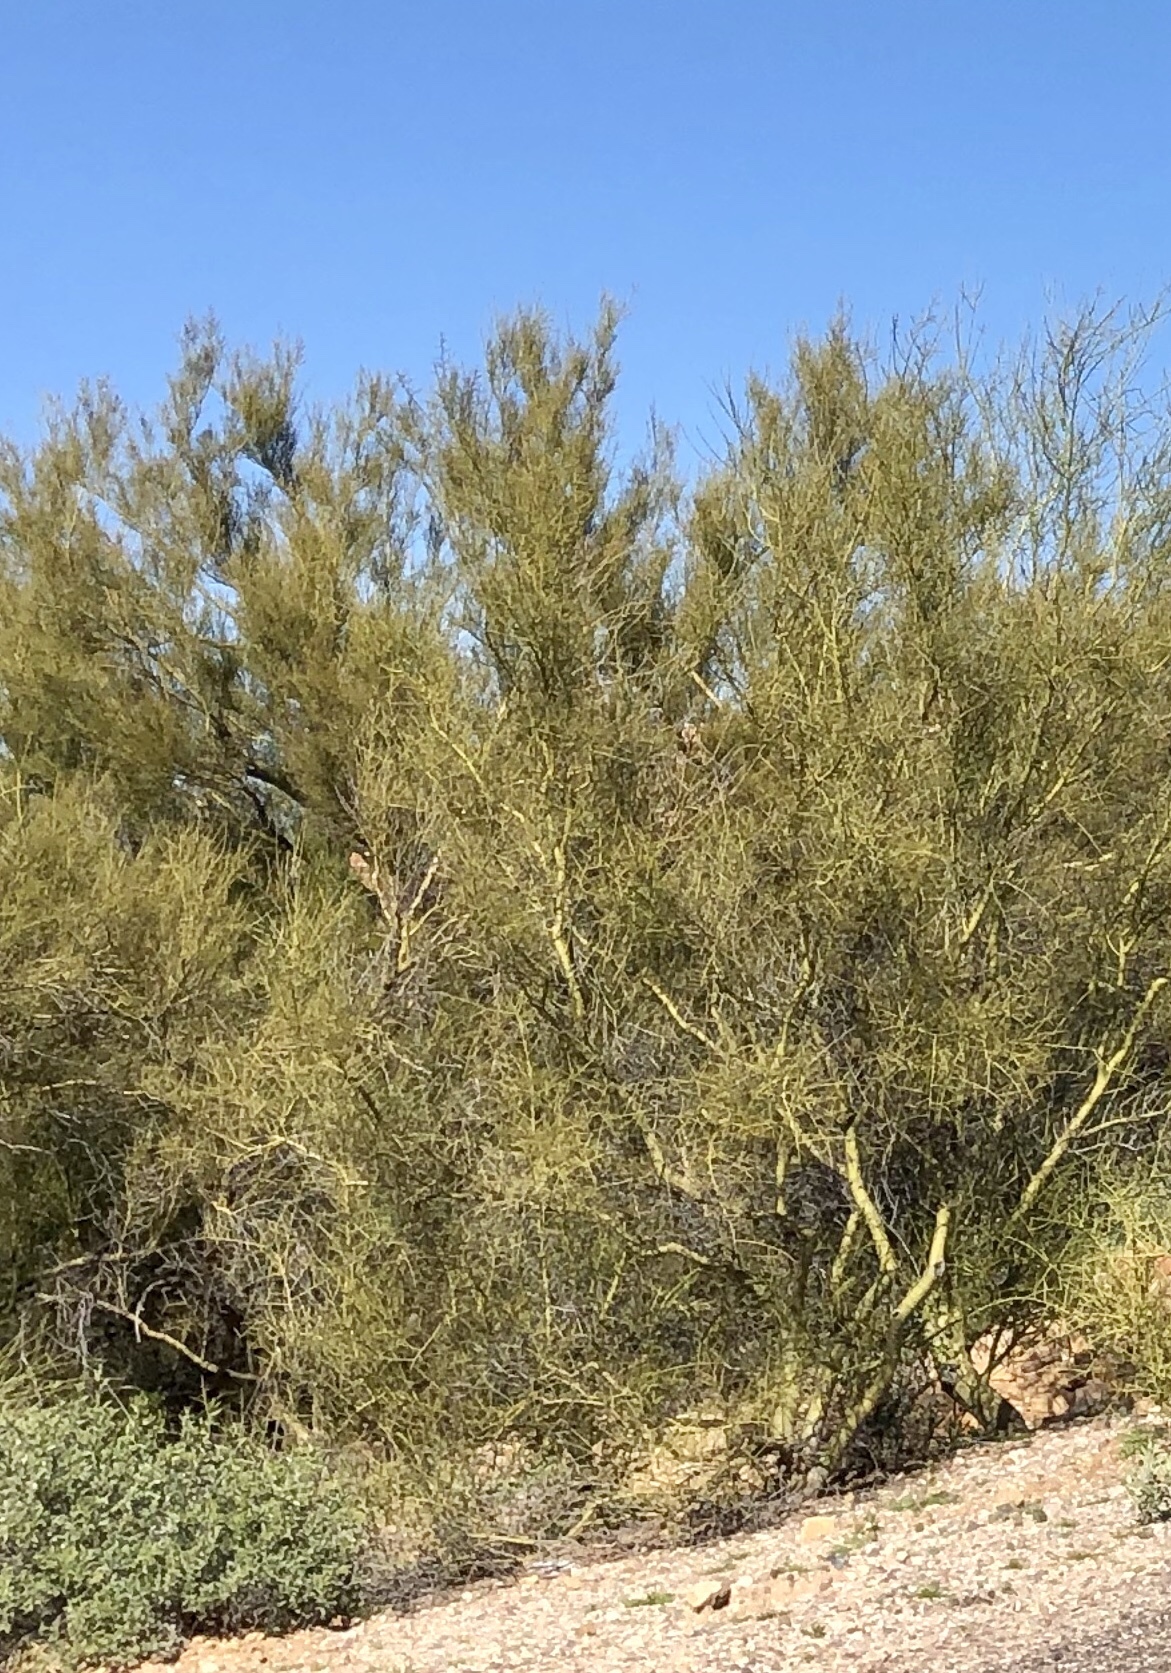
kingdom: Plantae
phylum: Tracheophyta
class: Magnoliopsida
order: Fabales
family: Fabaceae
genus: Parkinsonia
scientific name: Parkinsonia microphylla
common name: Yellow paloverde
